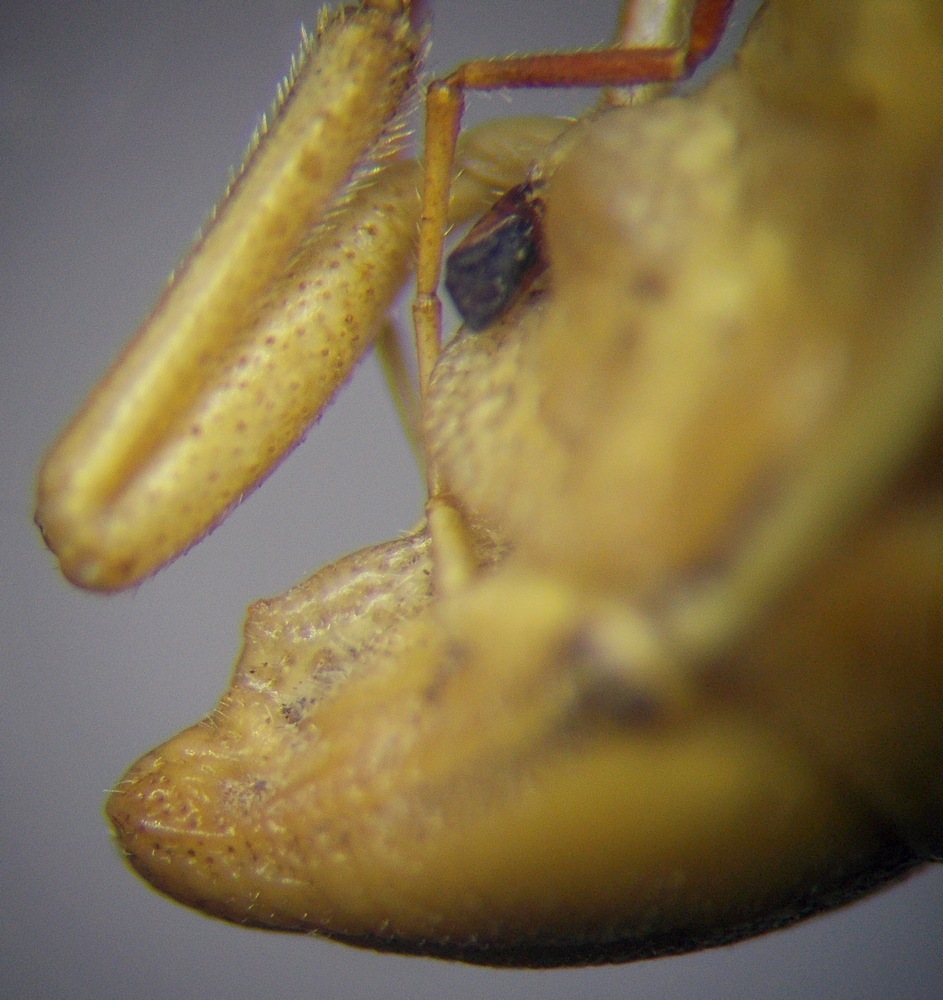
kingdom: Animalia
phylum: Arthropoda
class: Insecta
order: Hemiptera
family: Pentatomidae
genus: Aelia
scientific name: Aelia
